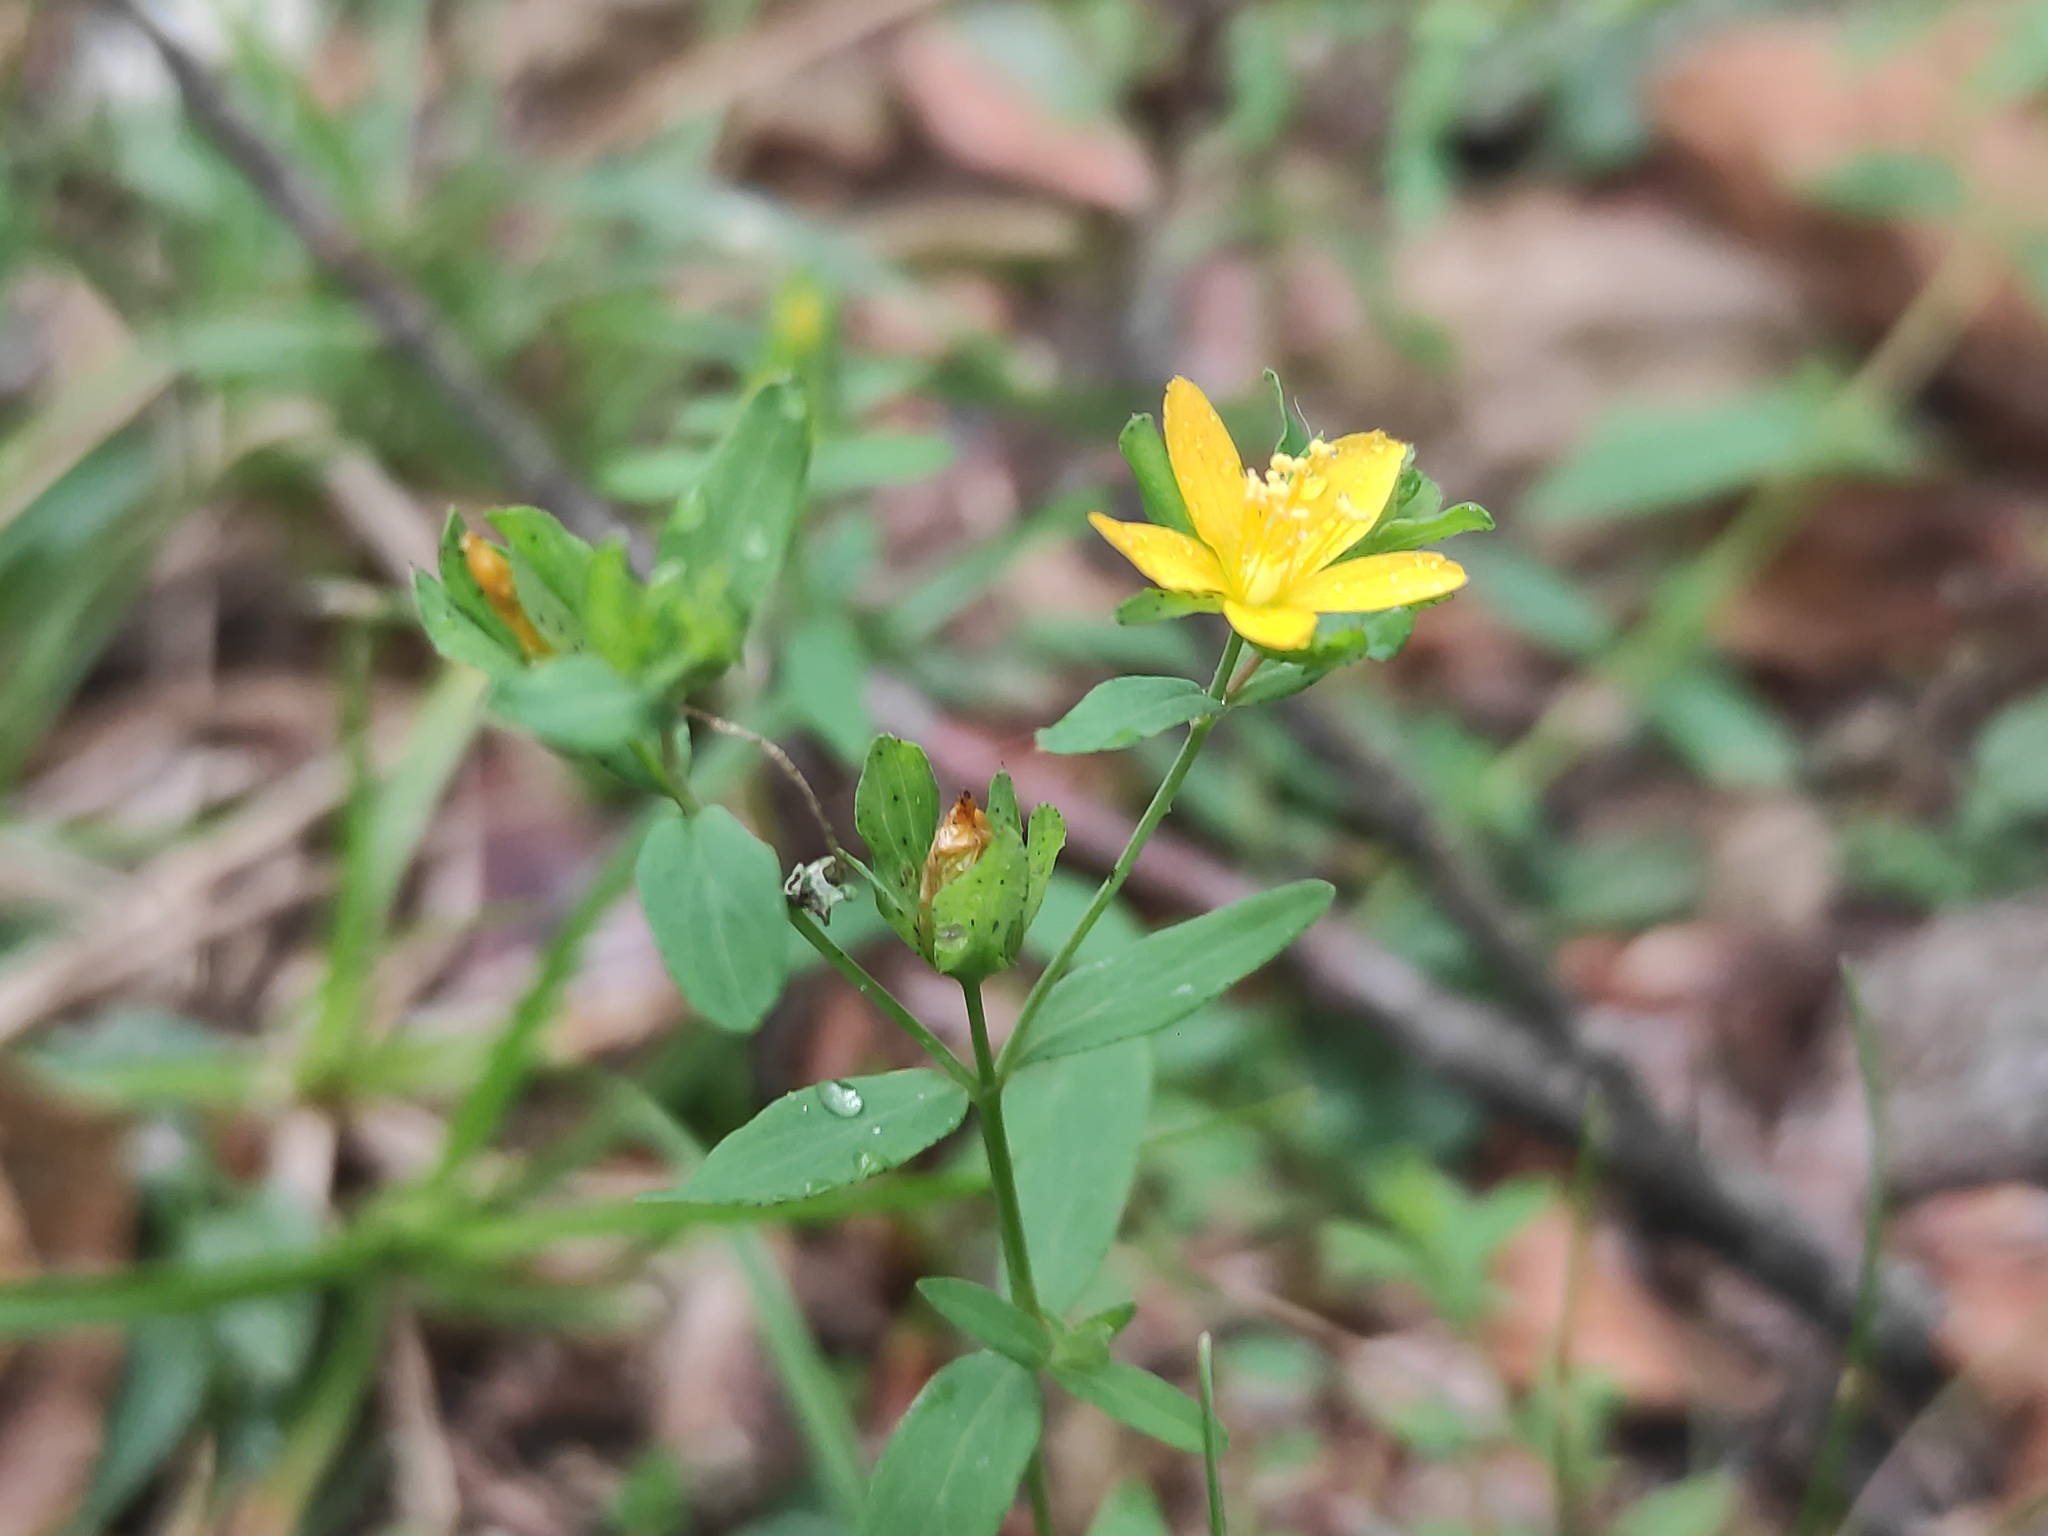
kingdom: Plantae
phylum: Tracheophyta
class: Magnoliopsida
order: Malpighiales
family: Hypericaceae
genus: Hypericum
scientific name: Hypericum humifusum
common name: Trailing st. john's-wort
